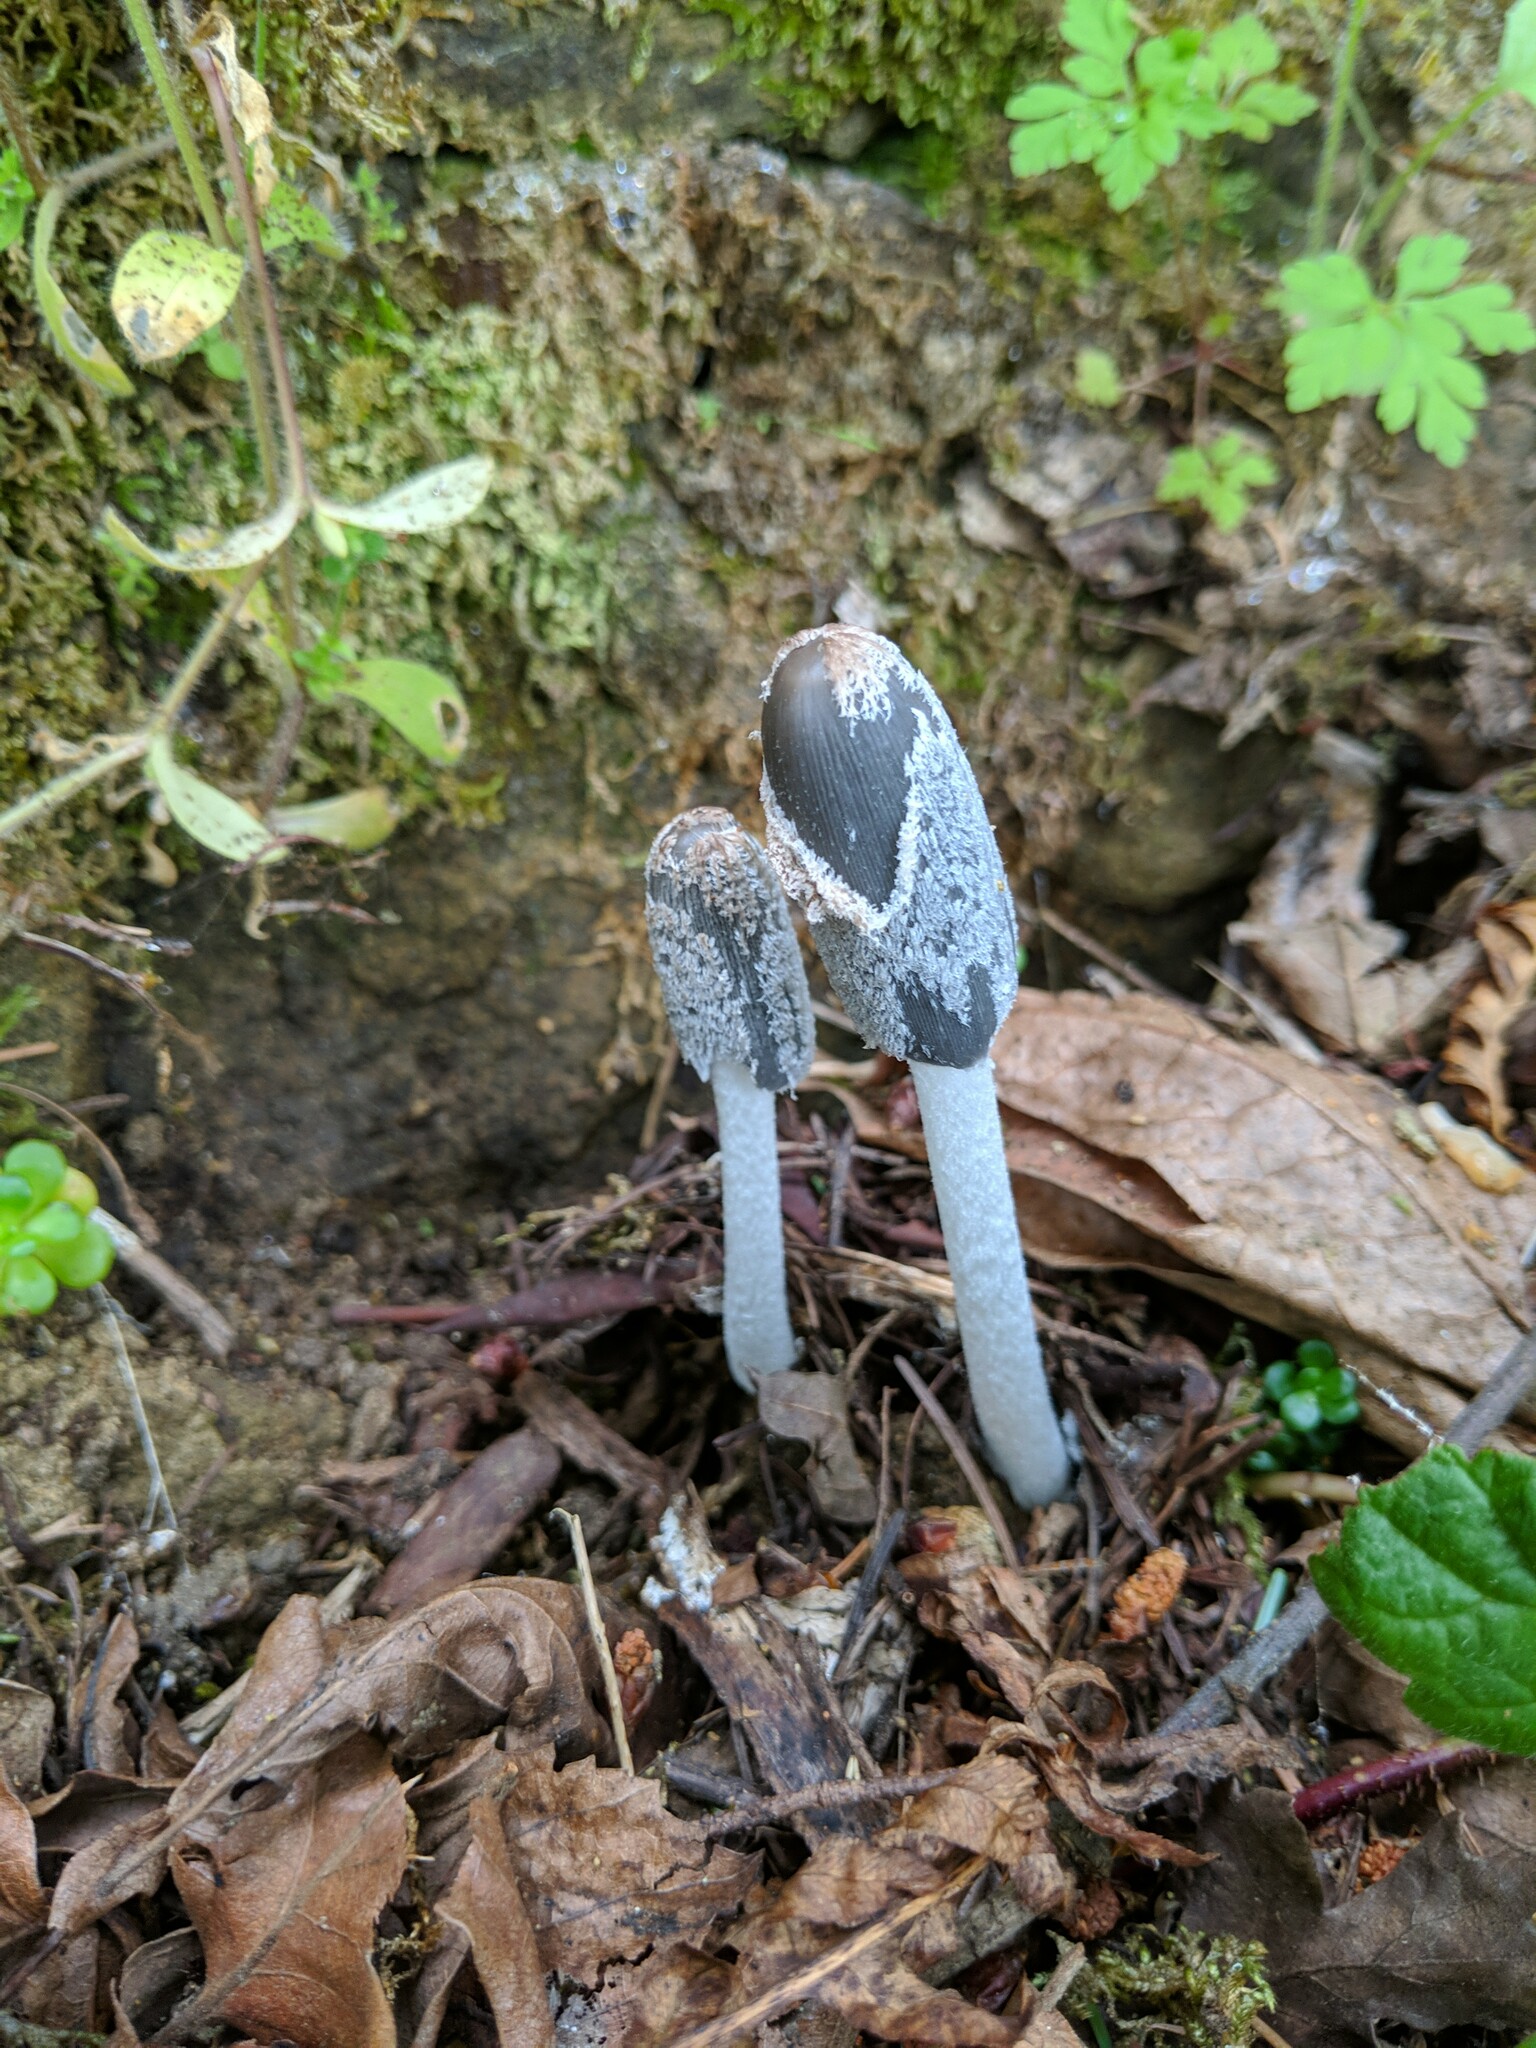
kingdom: Fungi
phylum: Basidiomycota
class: Agaricomycetes
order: Agaricales
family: Psathyrellaceae
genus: Coprinopsis
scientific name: Coprinopsis lagopus
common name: Hare'sfoot inkcap
